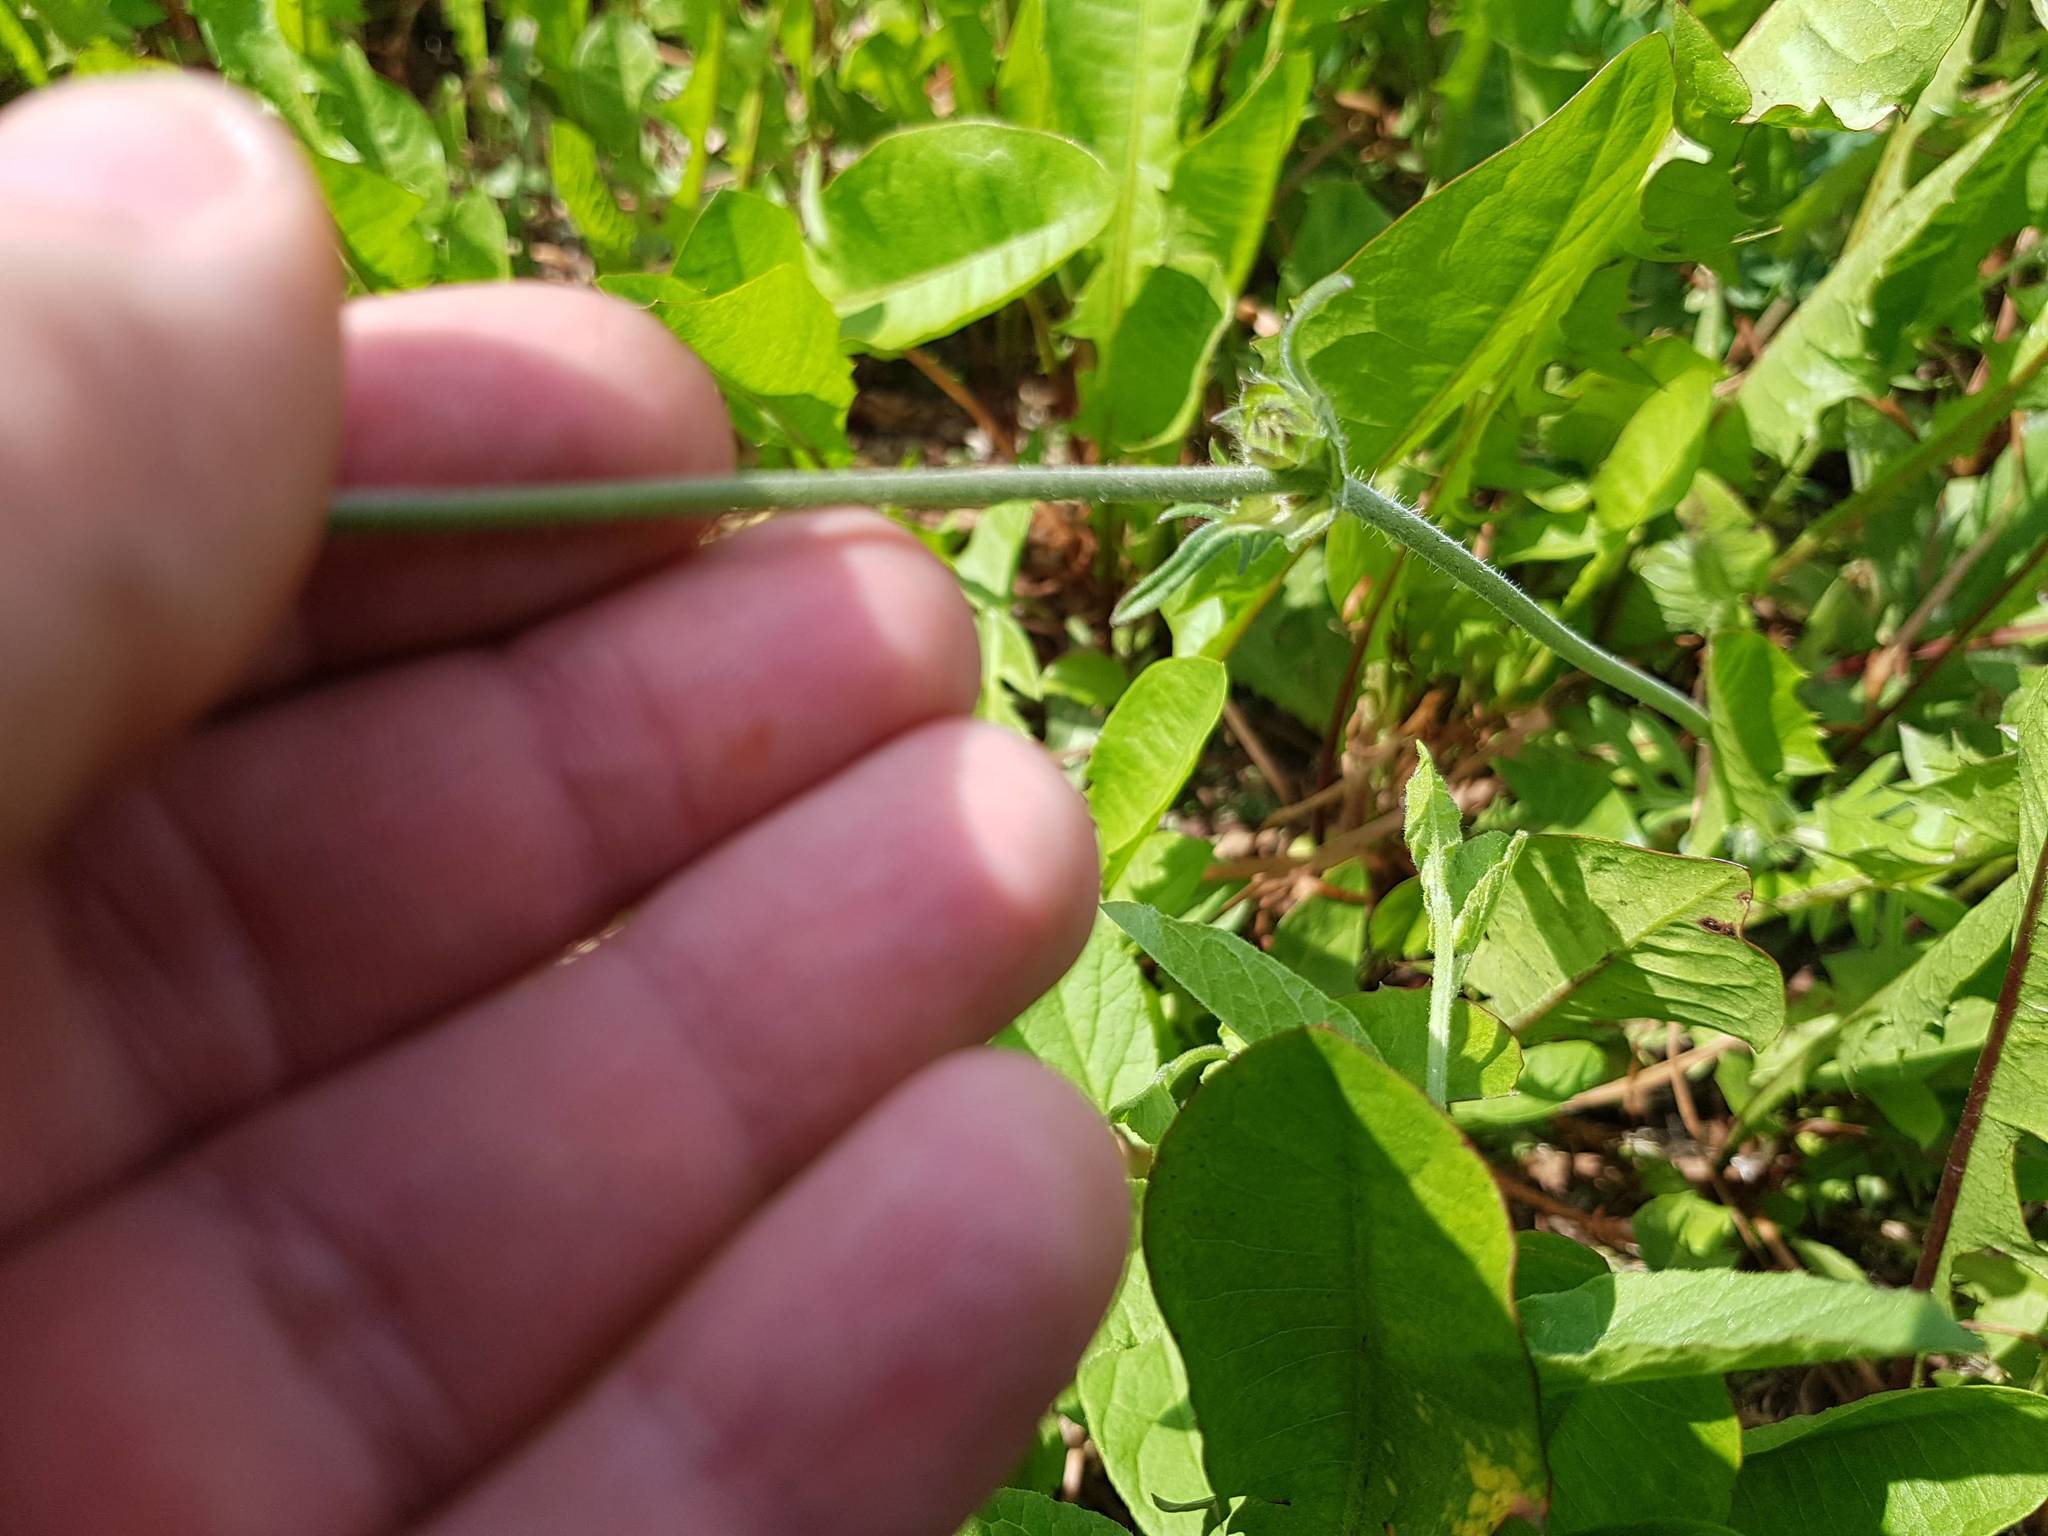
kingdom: Plantae
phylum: Tracheophyta
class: Magnoliopsida
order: Dipsacales
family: Caprifoliaceae
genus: Knautia
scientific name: Knautia arvensis
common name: Field scabiosa
